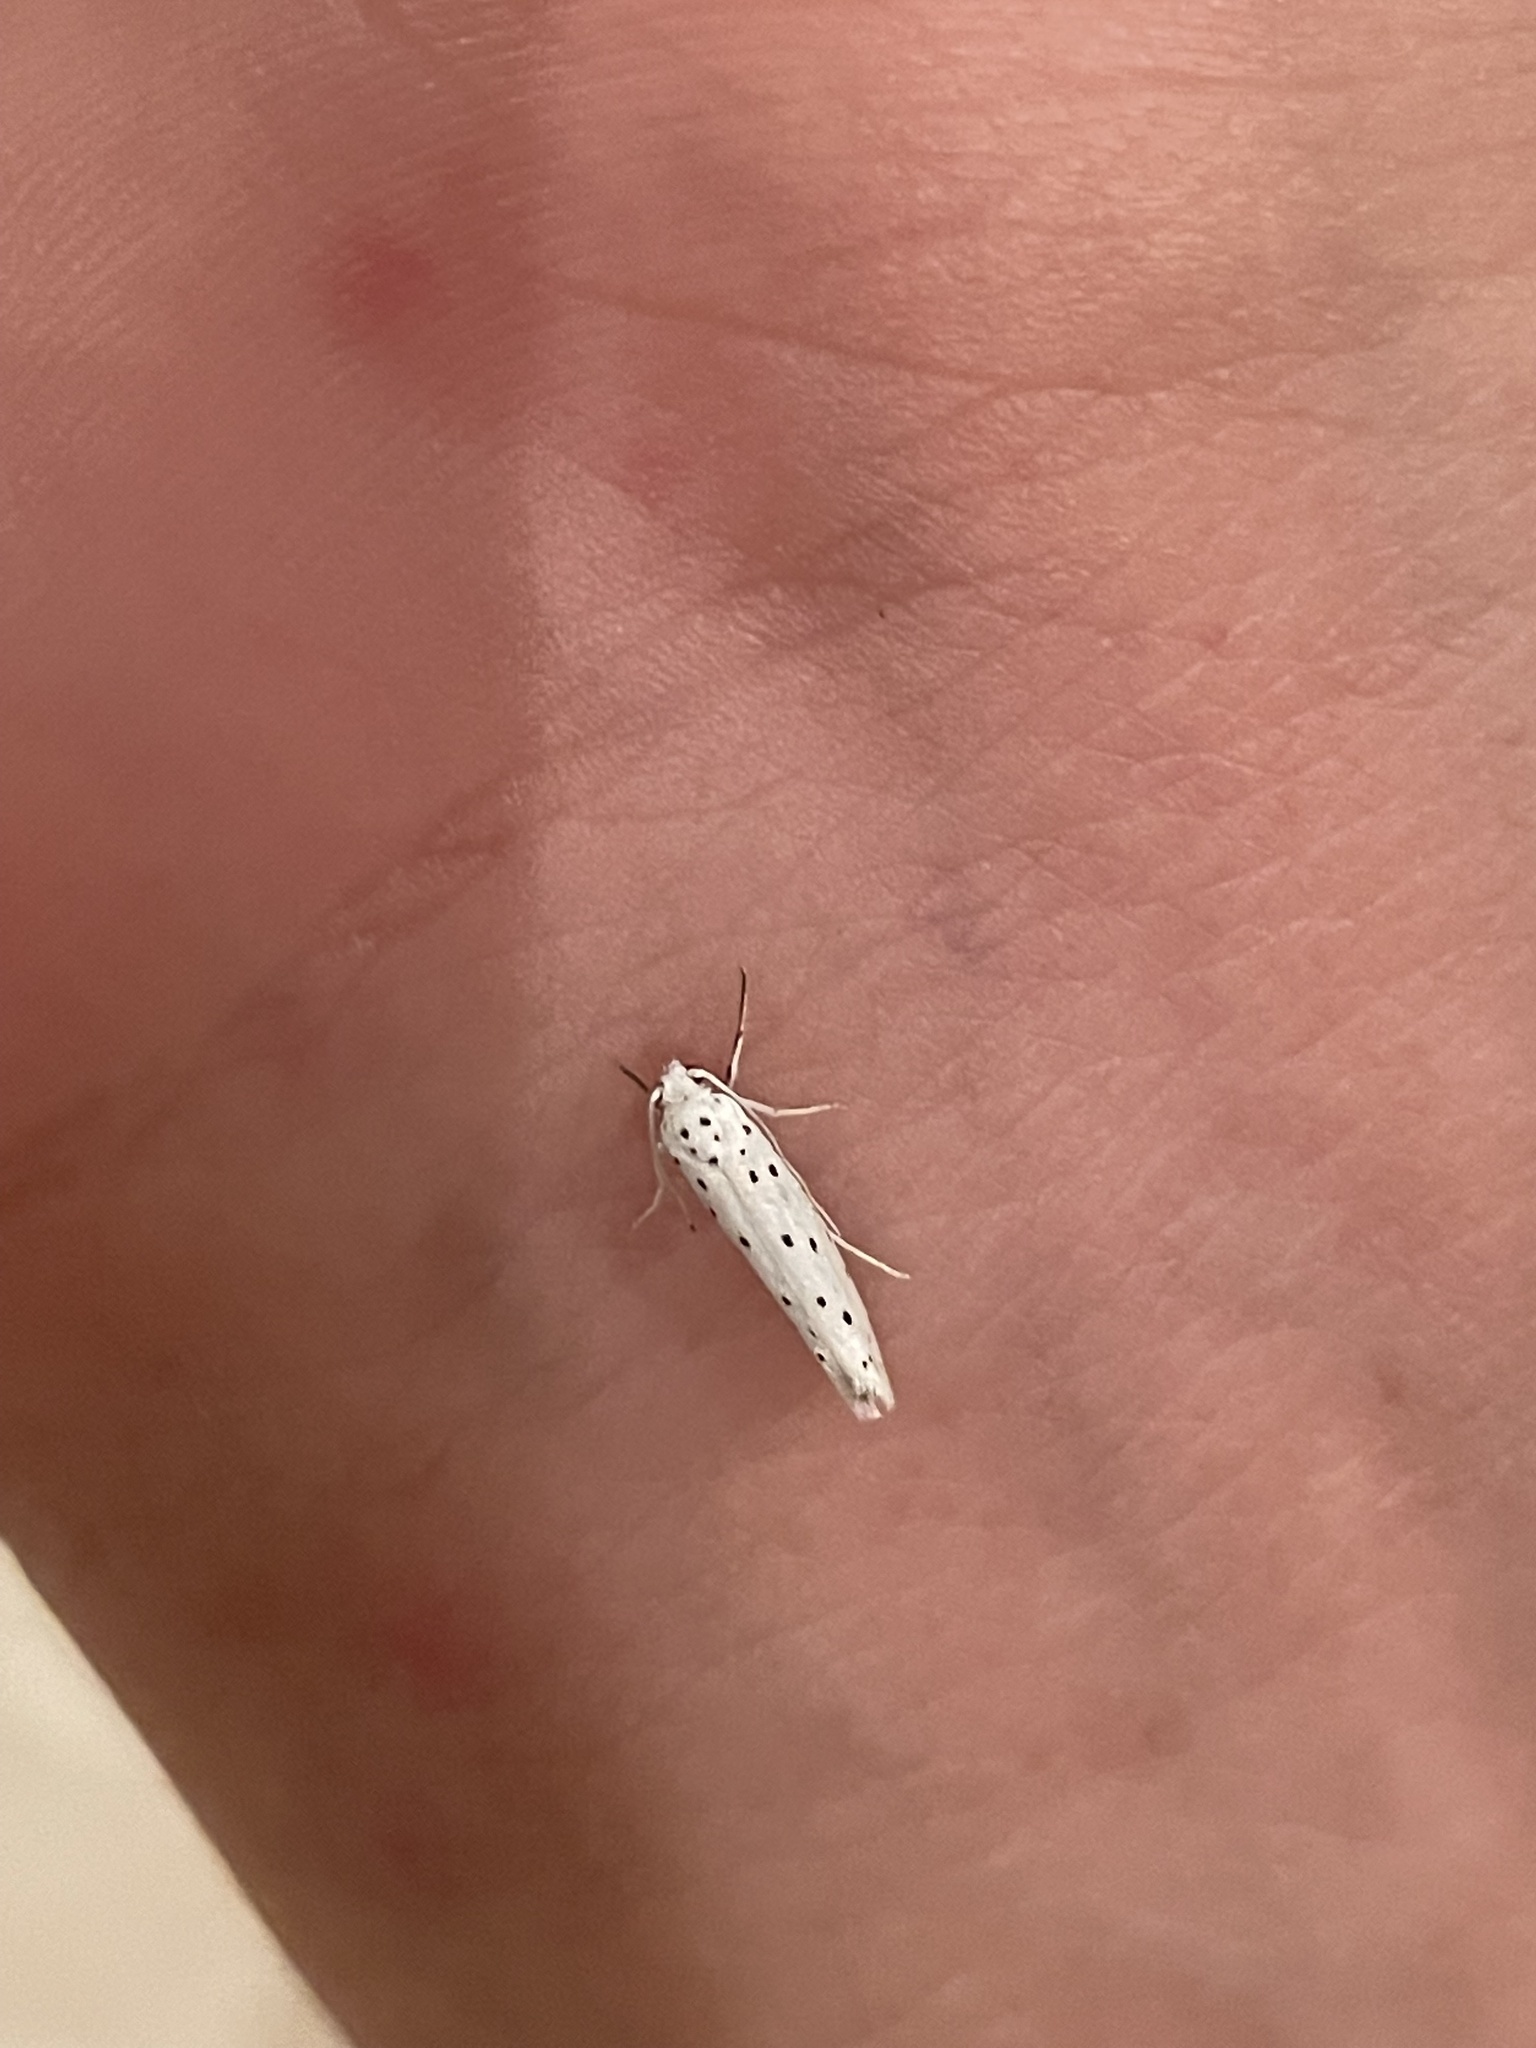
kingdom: Animalia
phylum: Arthropoda
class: Insecta
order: Lepidoptera
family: Yponomeutidae
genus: Yponomeuta
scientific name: Yponomeuta evonymella
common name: Bird-cherry ermine
